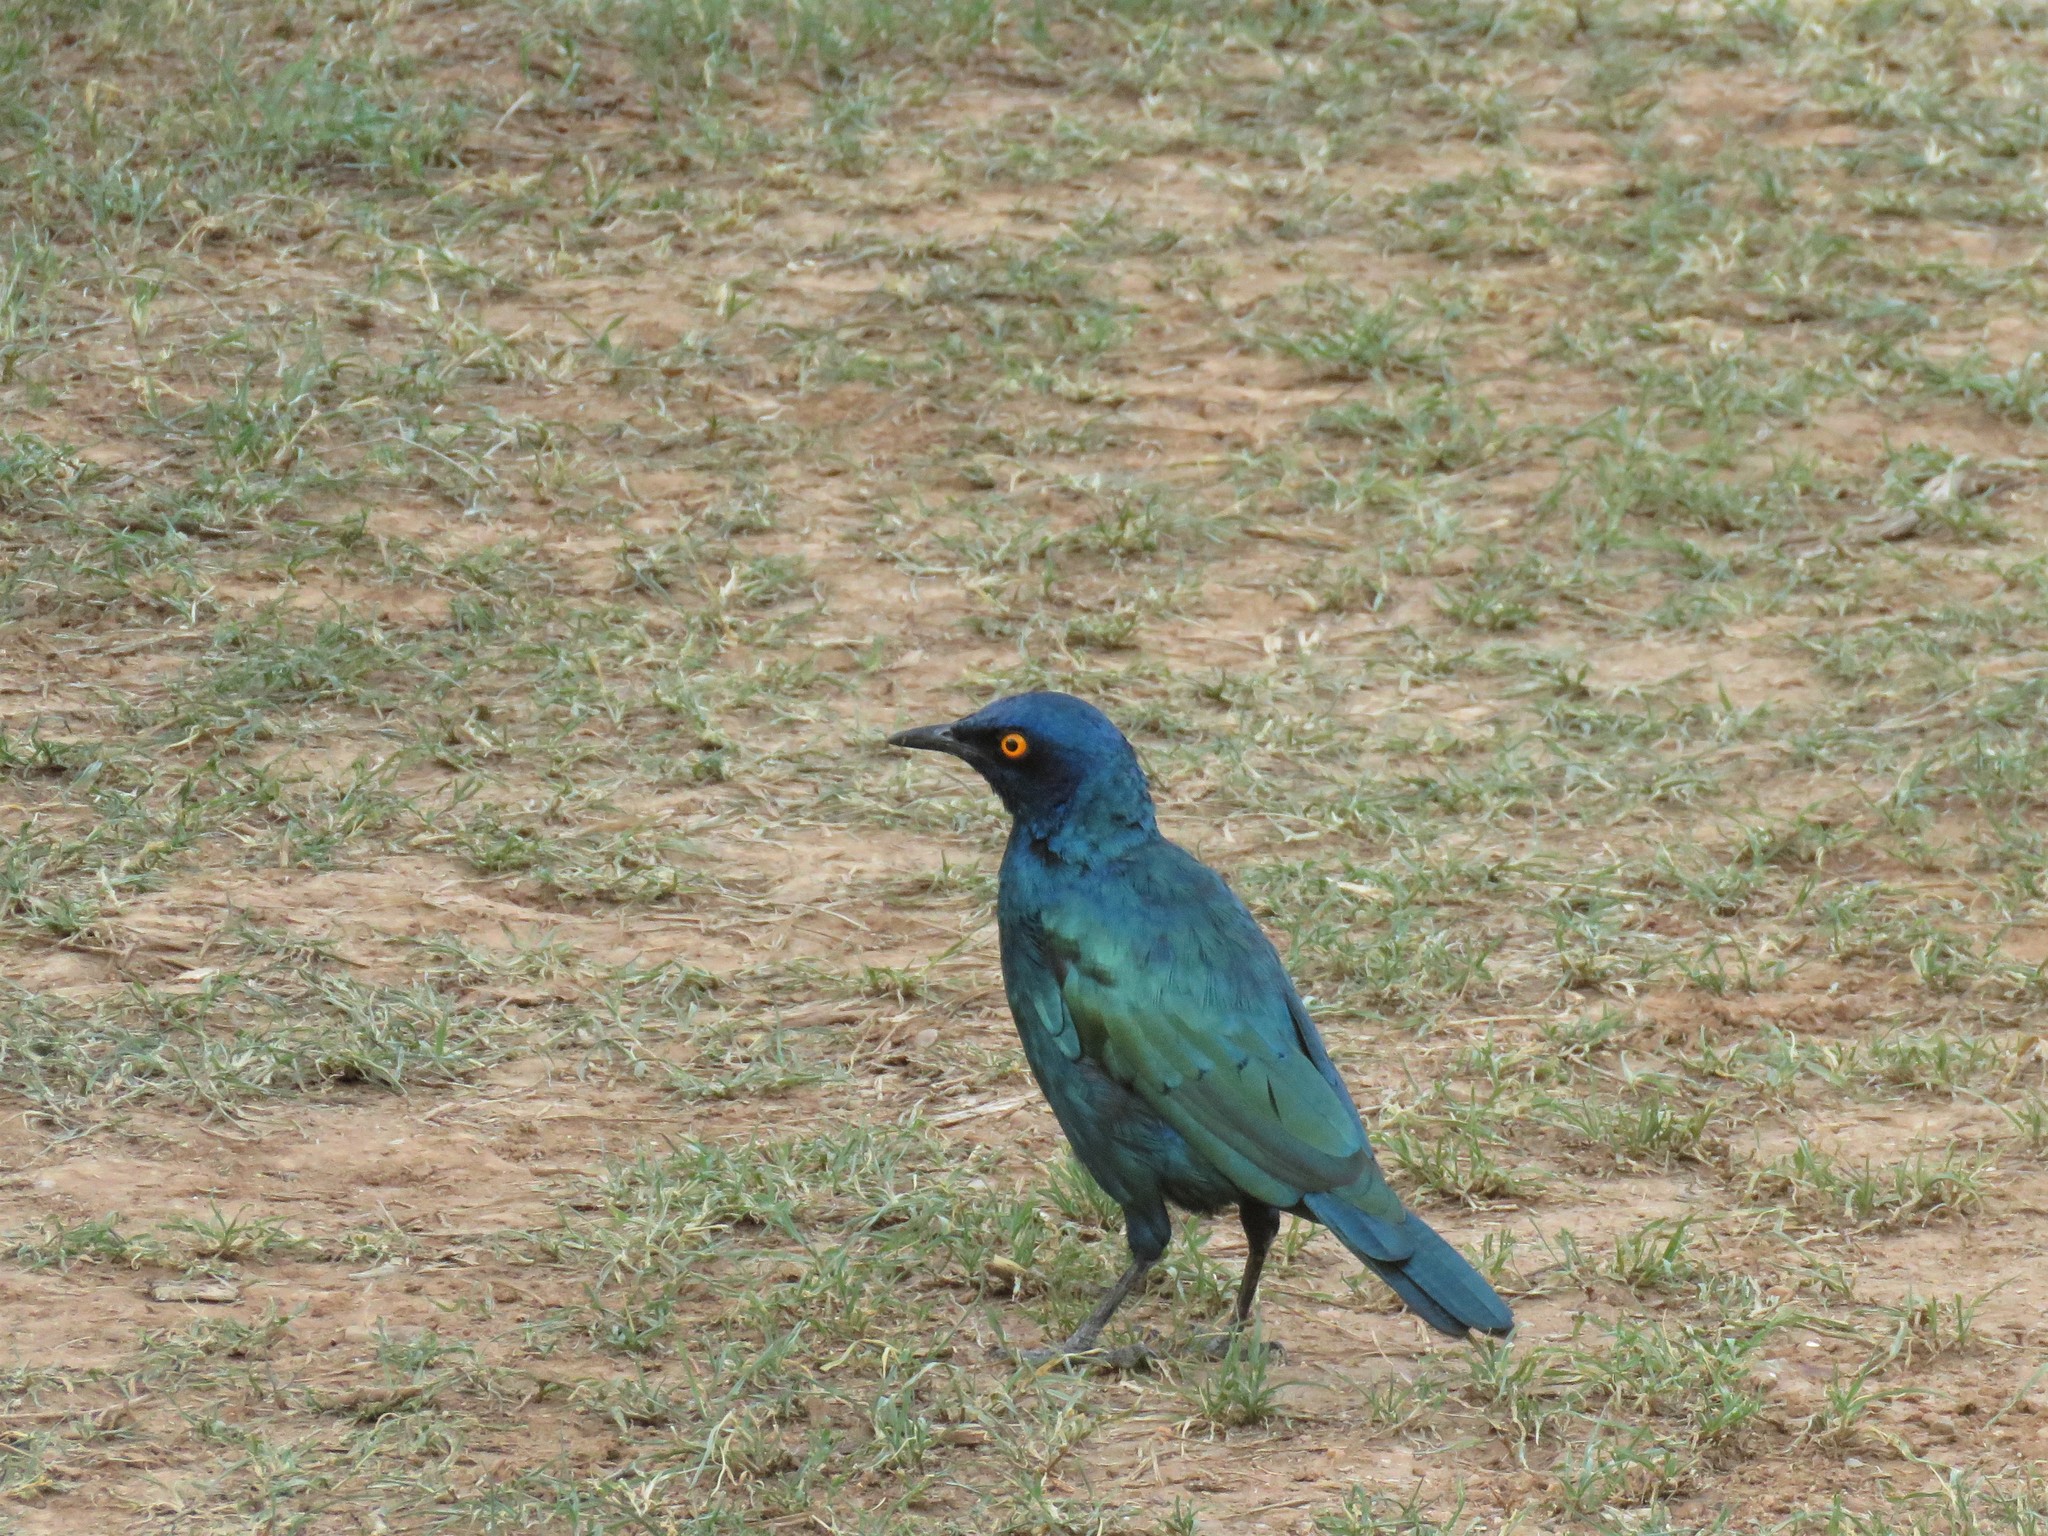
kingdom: Animalia
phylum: Chordata
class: Aves
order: Passeriformes
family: Sturnidae
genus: Lamprotornis
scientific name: Lamprotornis nitens
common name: Cape starling
